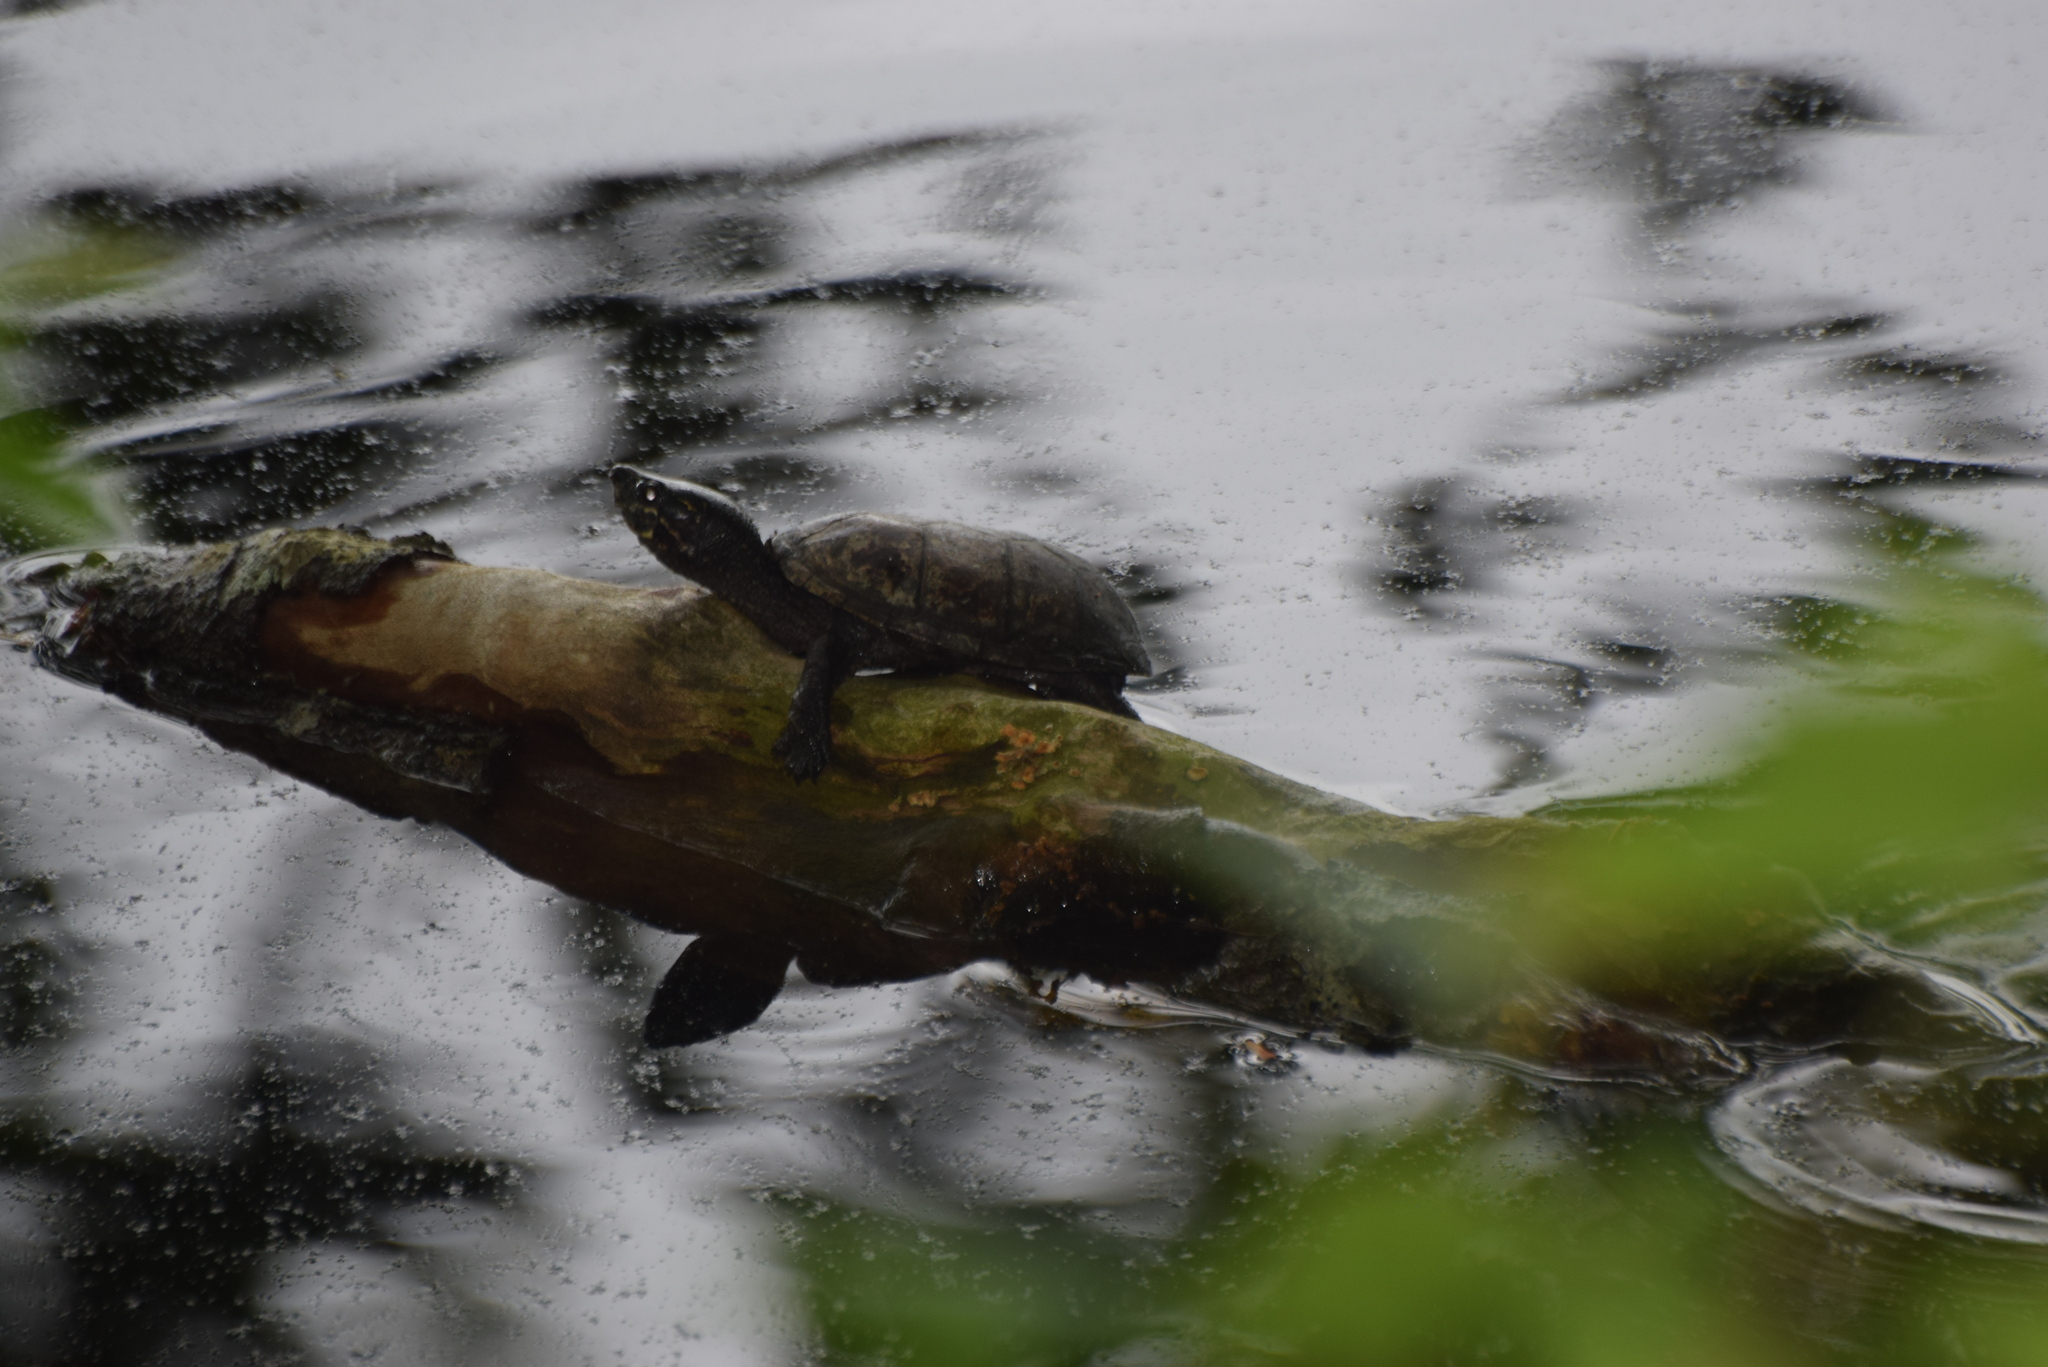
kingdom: Animalia
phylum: Chordata
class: Testudines
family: Kinosternidae
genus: Sternotherus
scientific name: Sternotherus odoratus
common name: Common musk turtle
